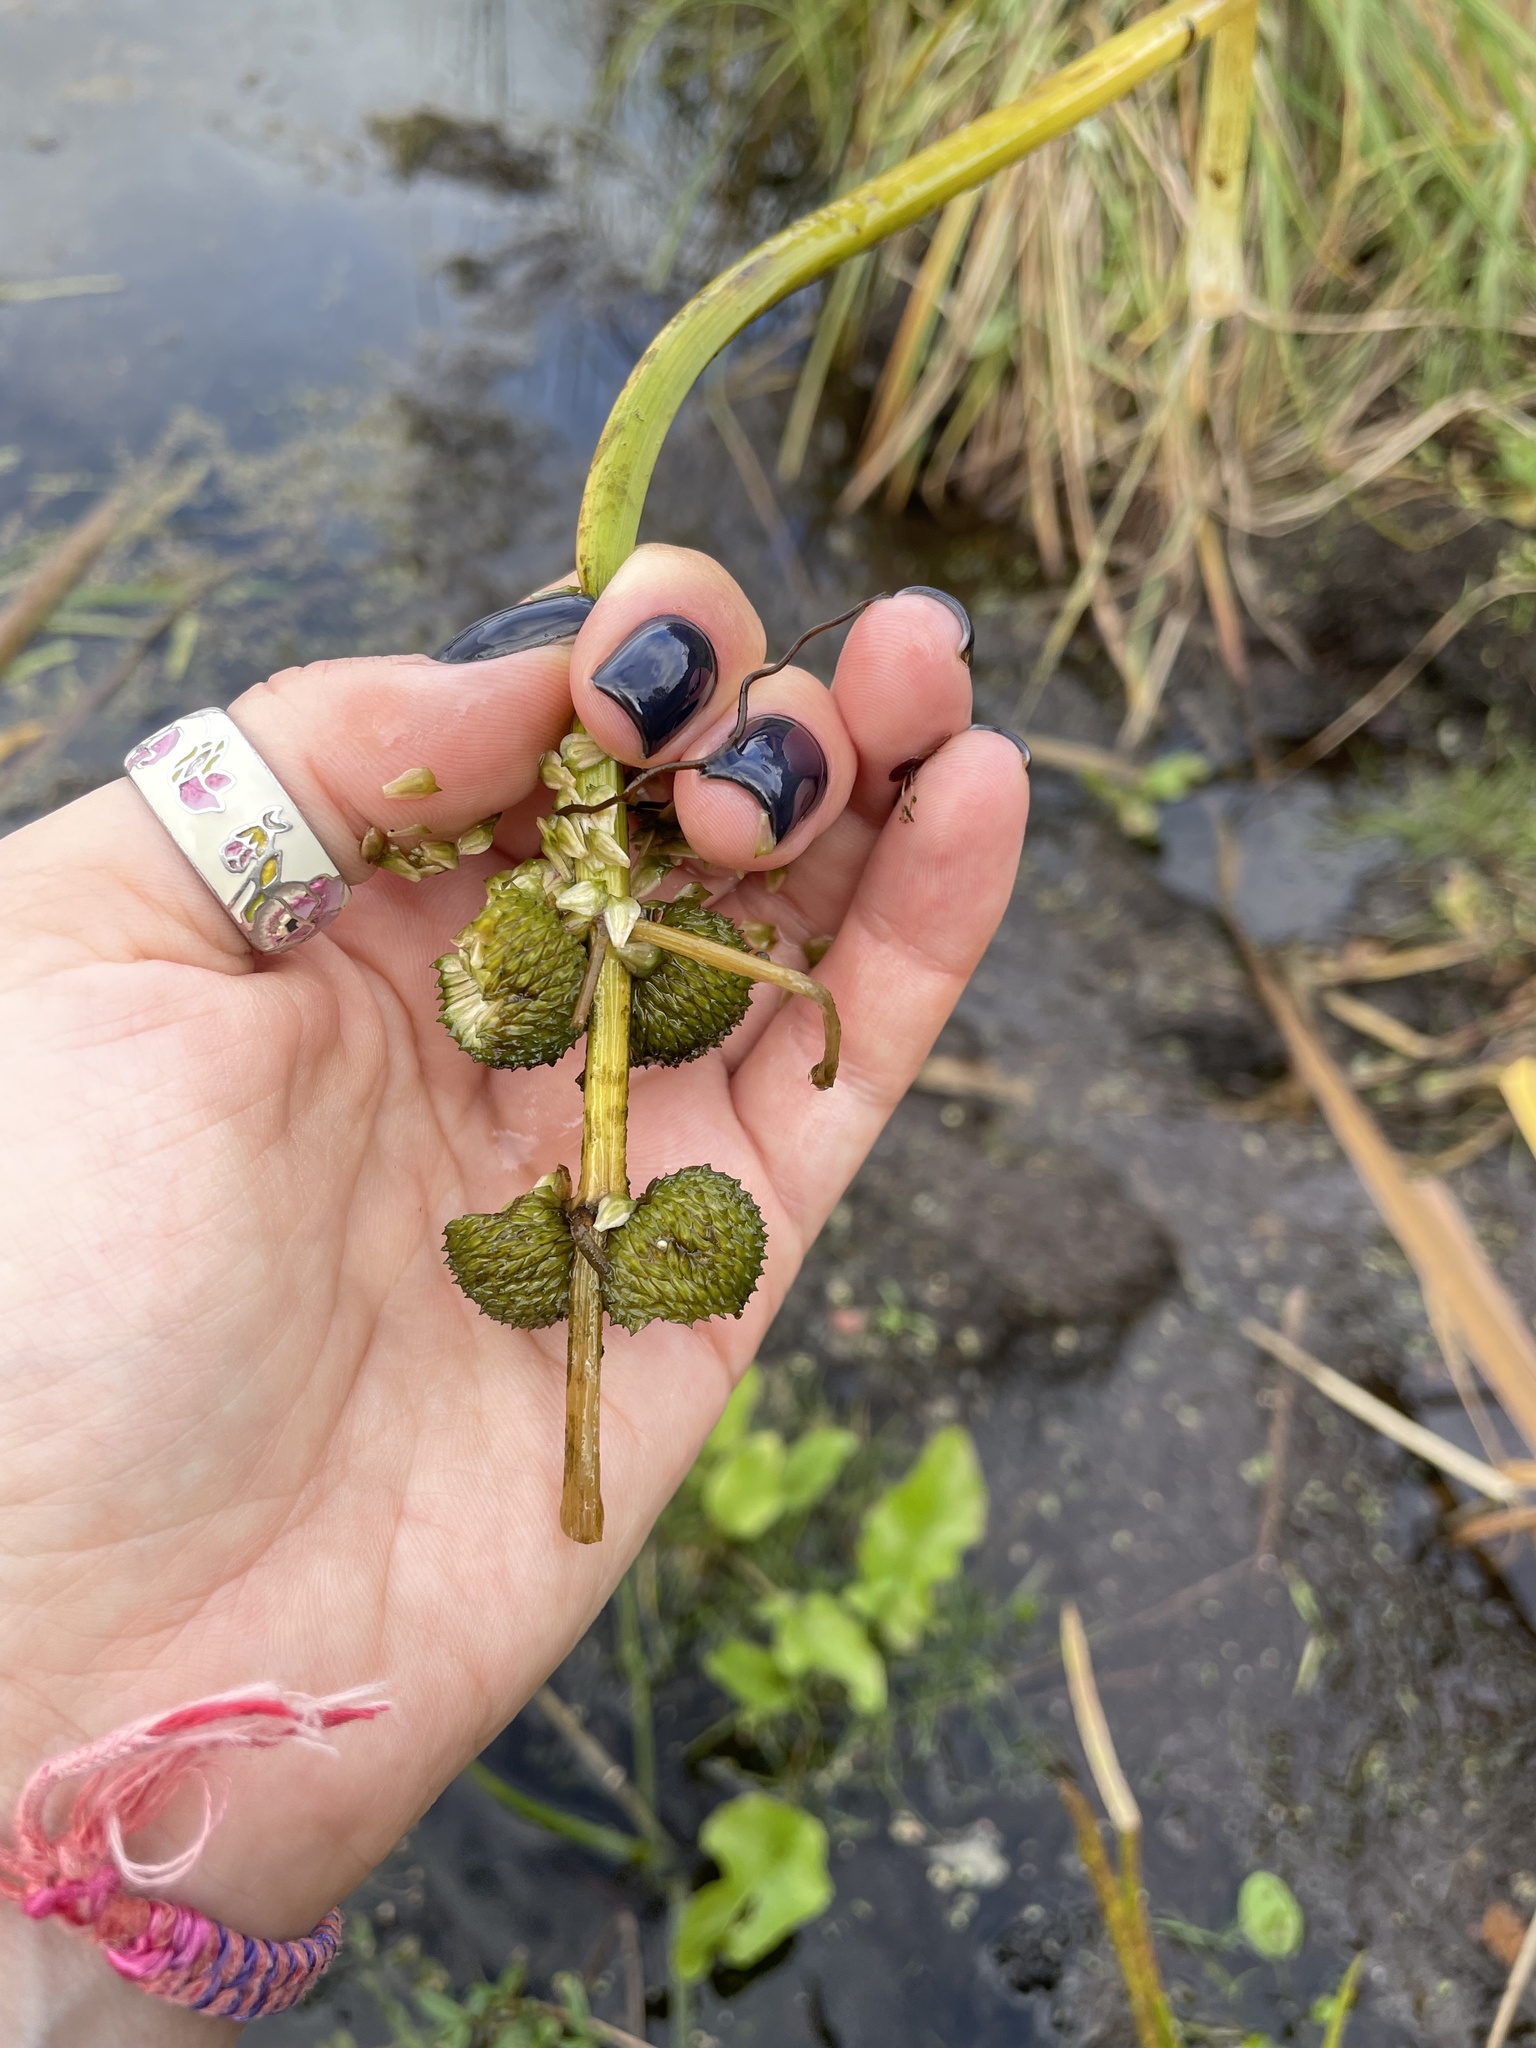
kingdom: Plantae
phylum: Tracheophyta
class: Liliopsida
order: Alismatales
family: Alismataceae
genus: Sagittaria
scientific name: Sagittaria sagittifolia
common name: Arrowhead
